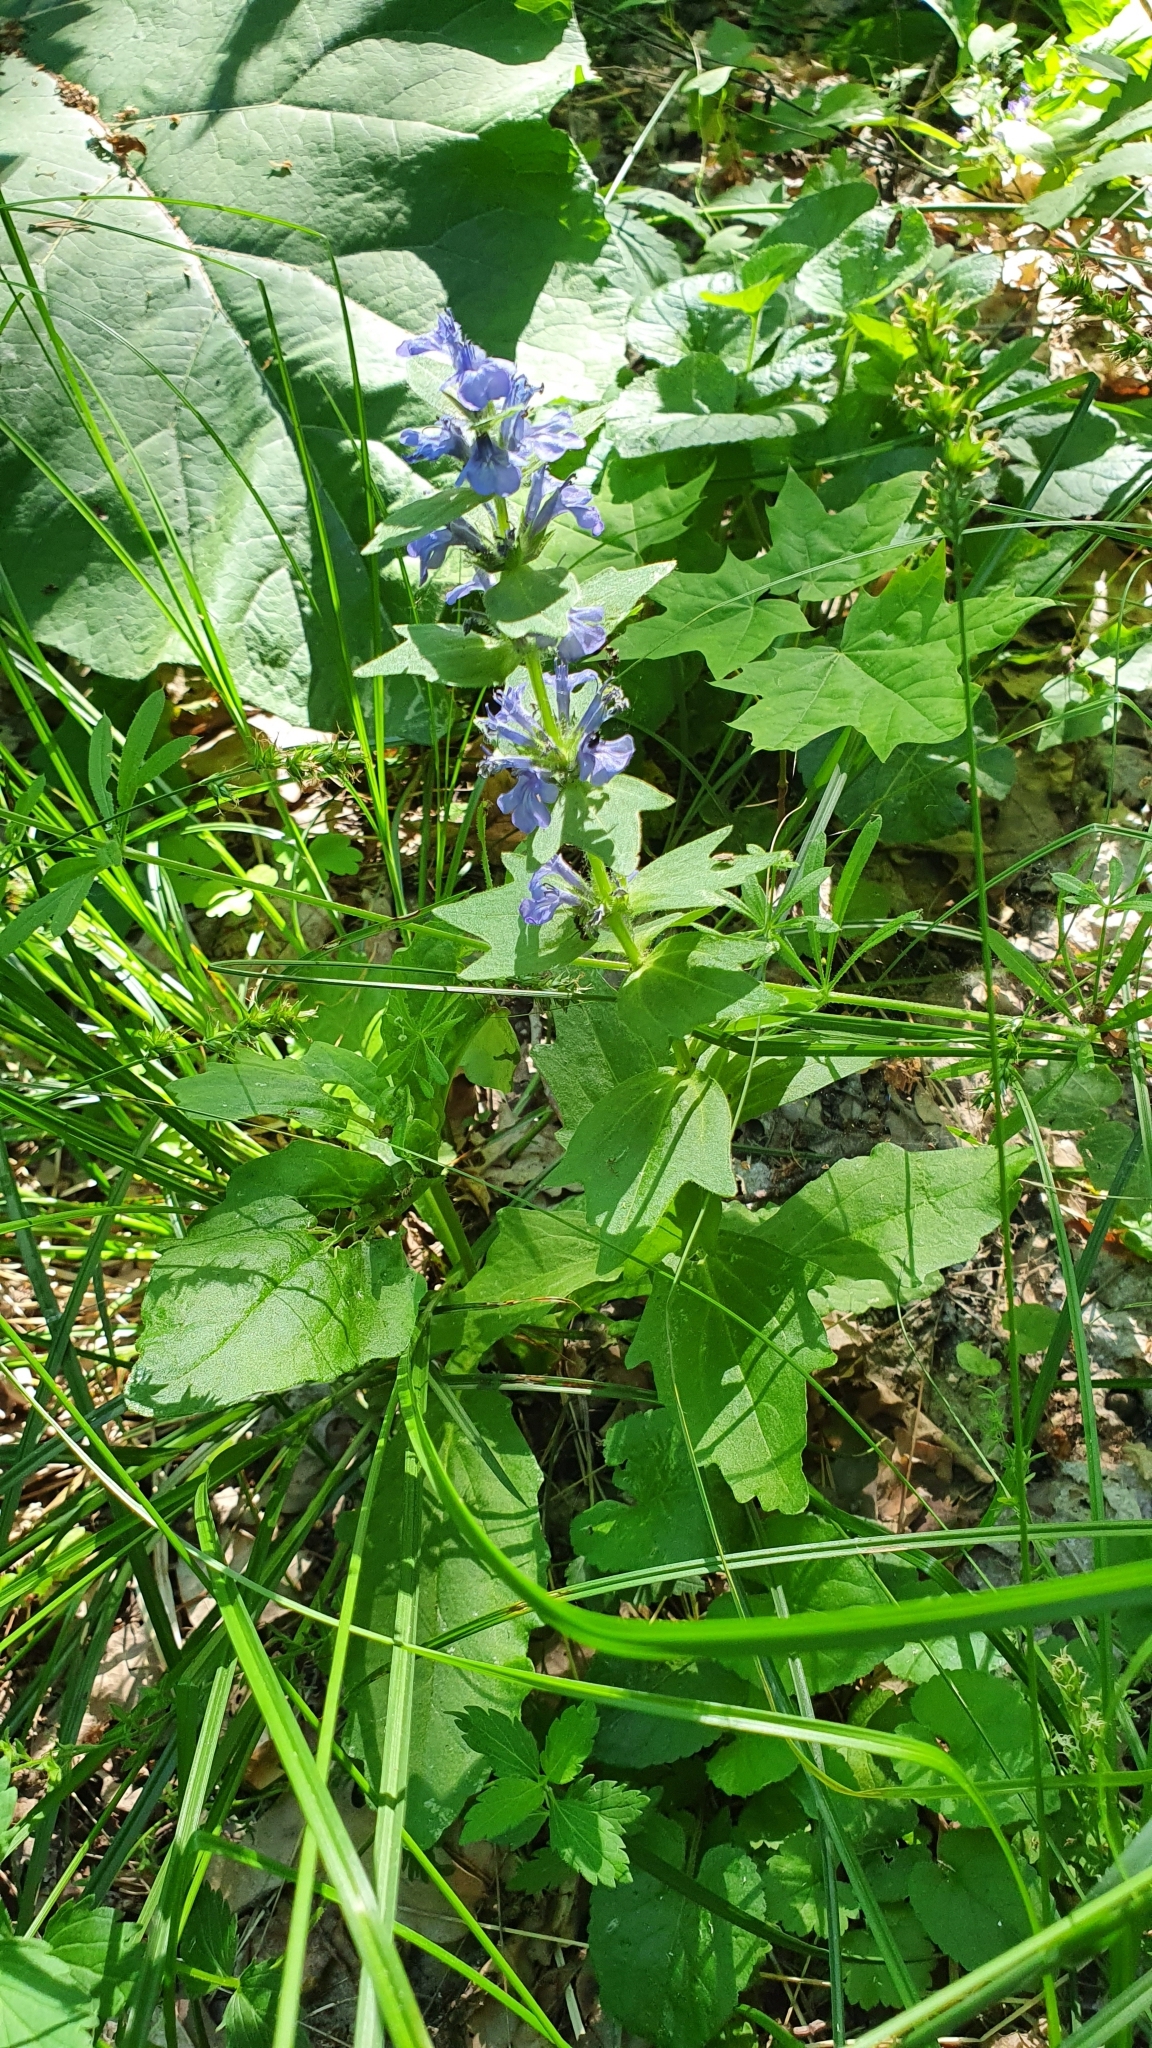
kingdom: Plantae
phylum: Tracheophyta
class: Magnoliopsida
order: Lamiales
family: Lamiaceae
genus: Ajuga
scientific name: Ajuga genevensis
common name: Blue bugle
